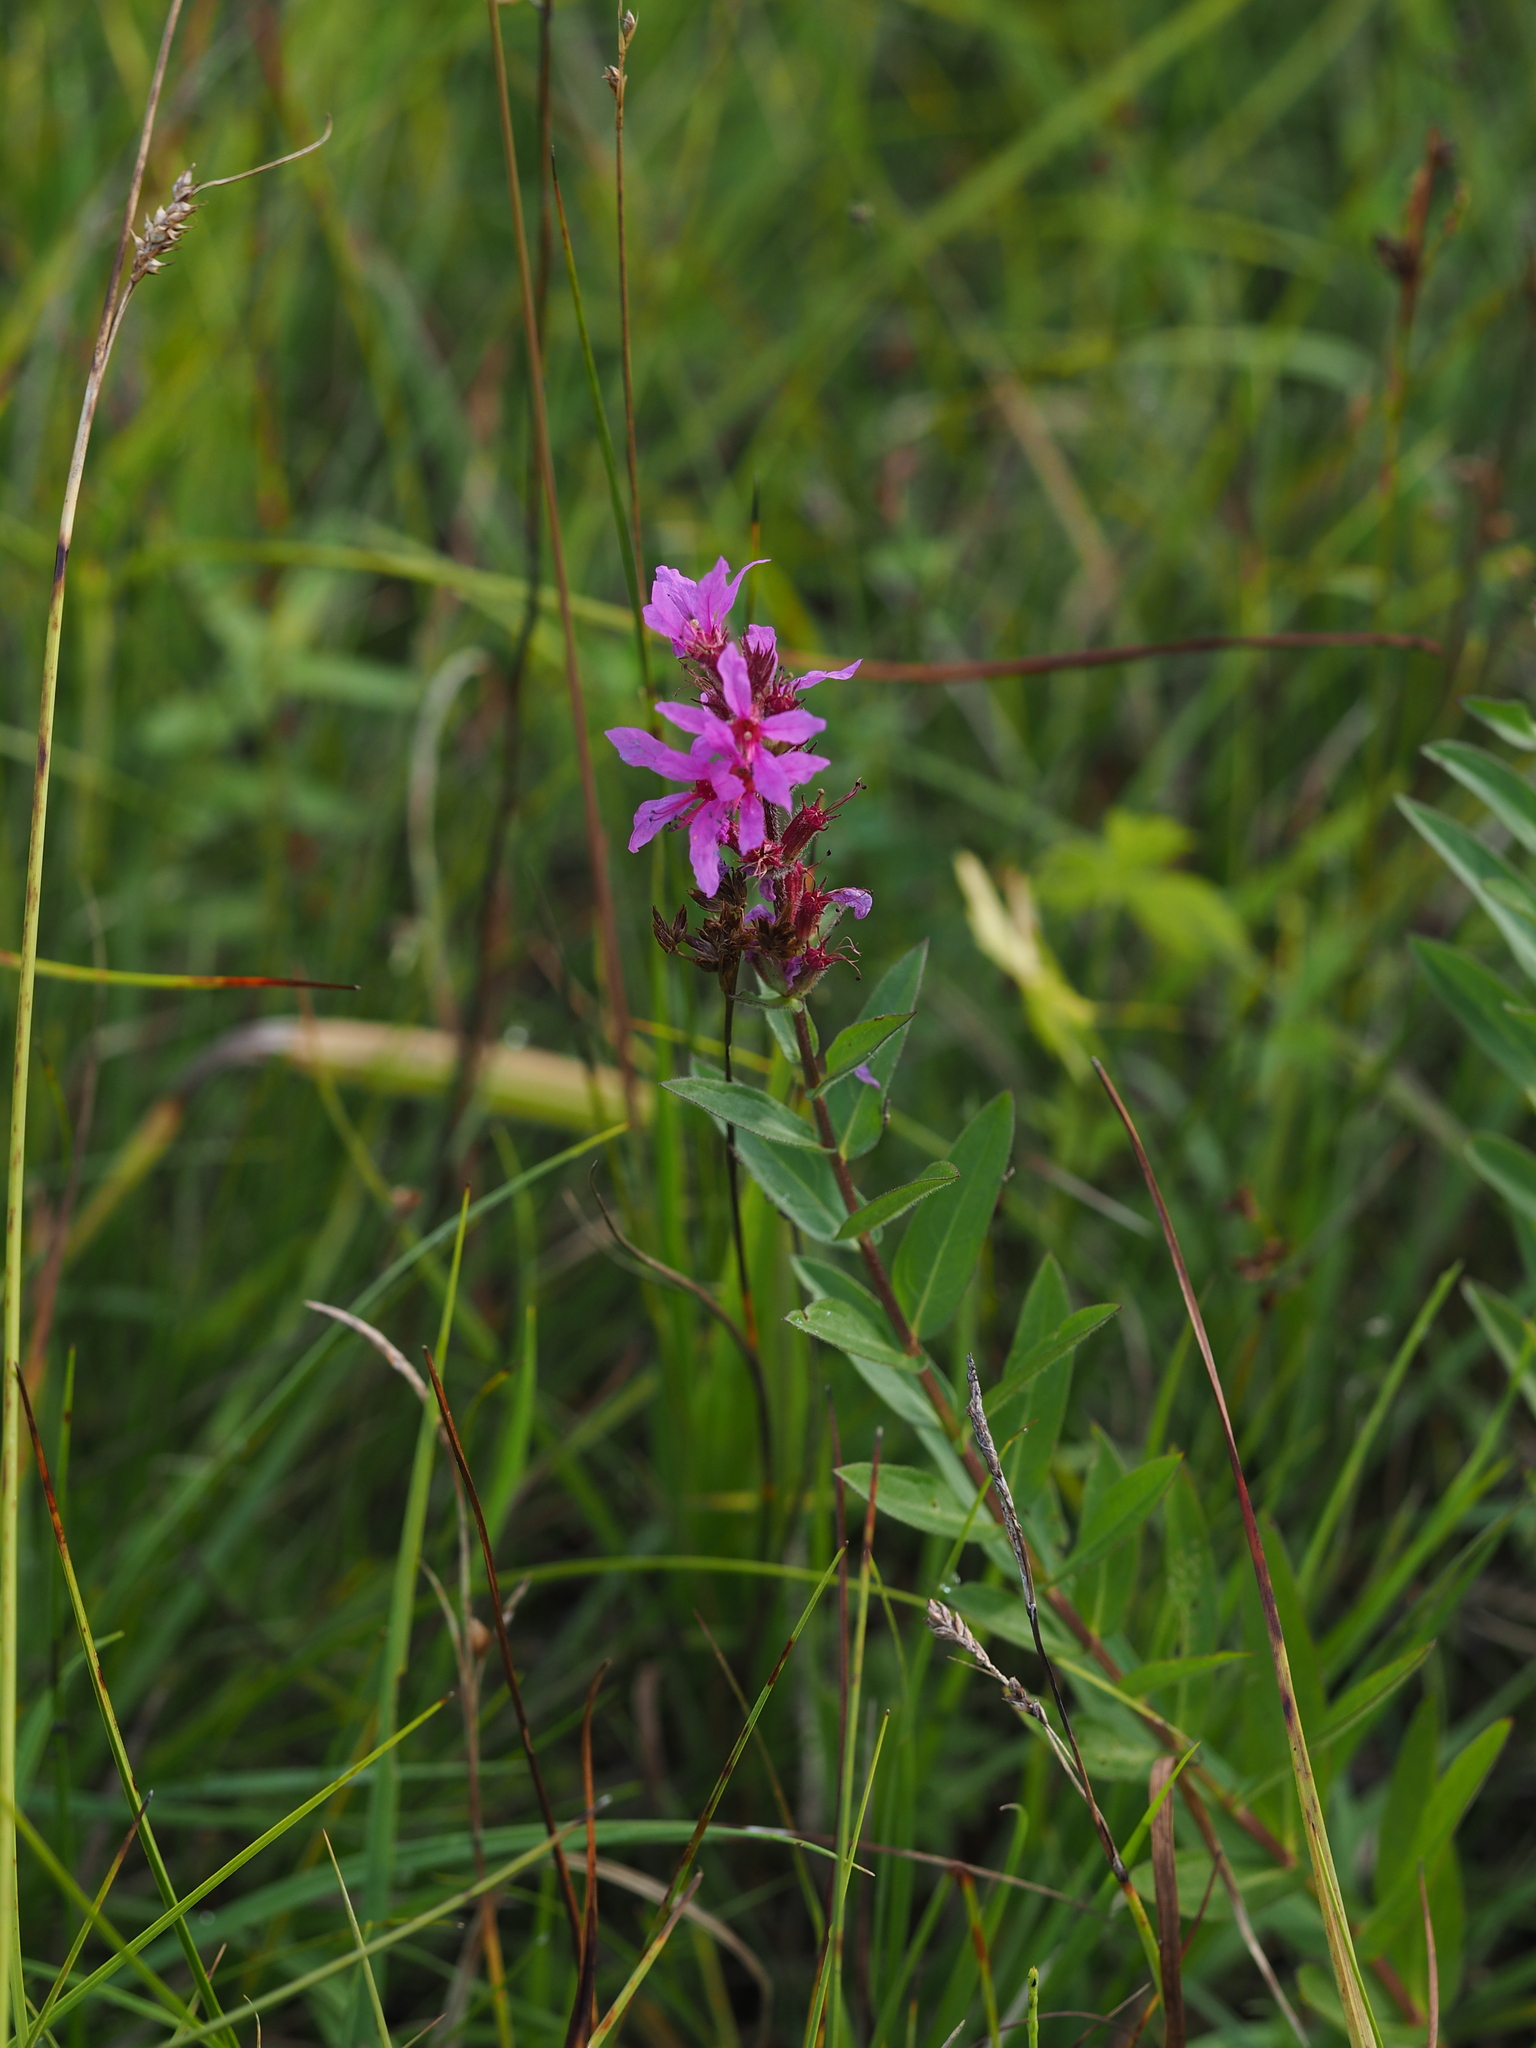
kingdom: Plantae
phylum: Tracheophyta
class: Magnoliopsida
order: Myrtales
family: Lythraceae
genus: Lythrum
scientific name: Lythrum salicaria
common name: Purple loosestrife
